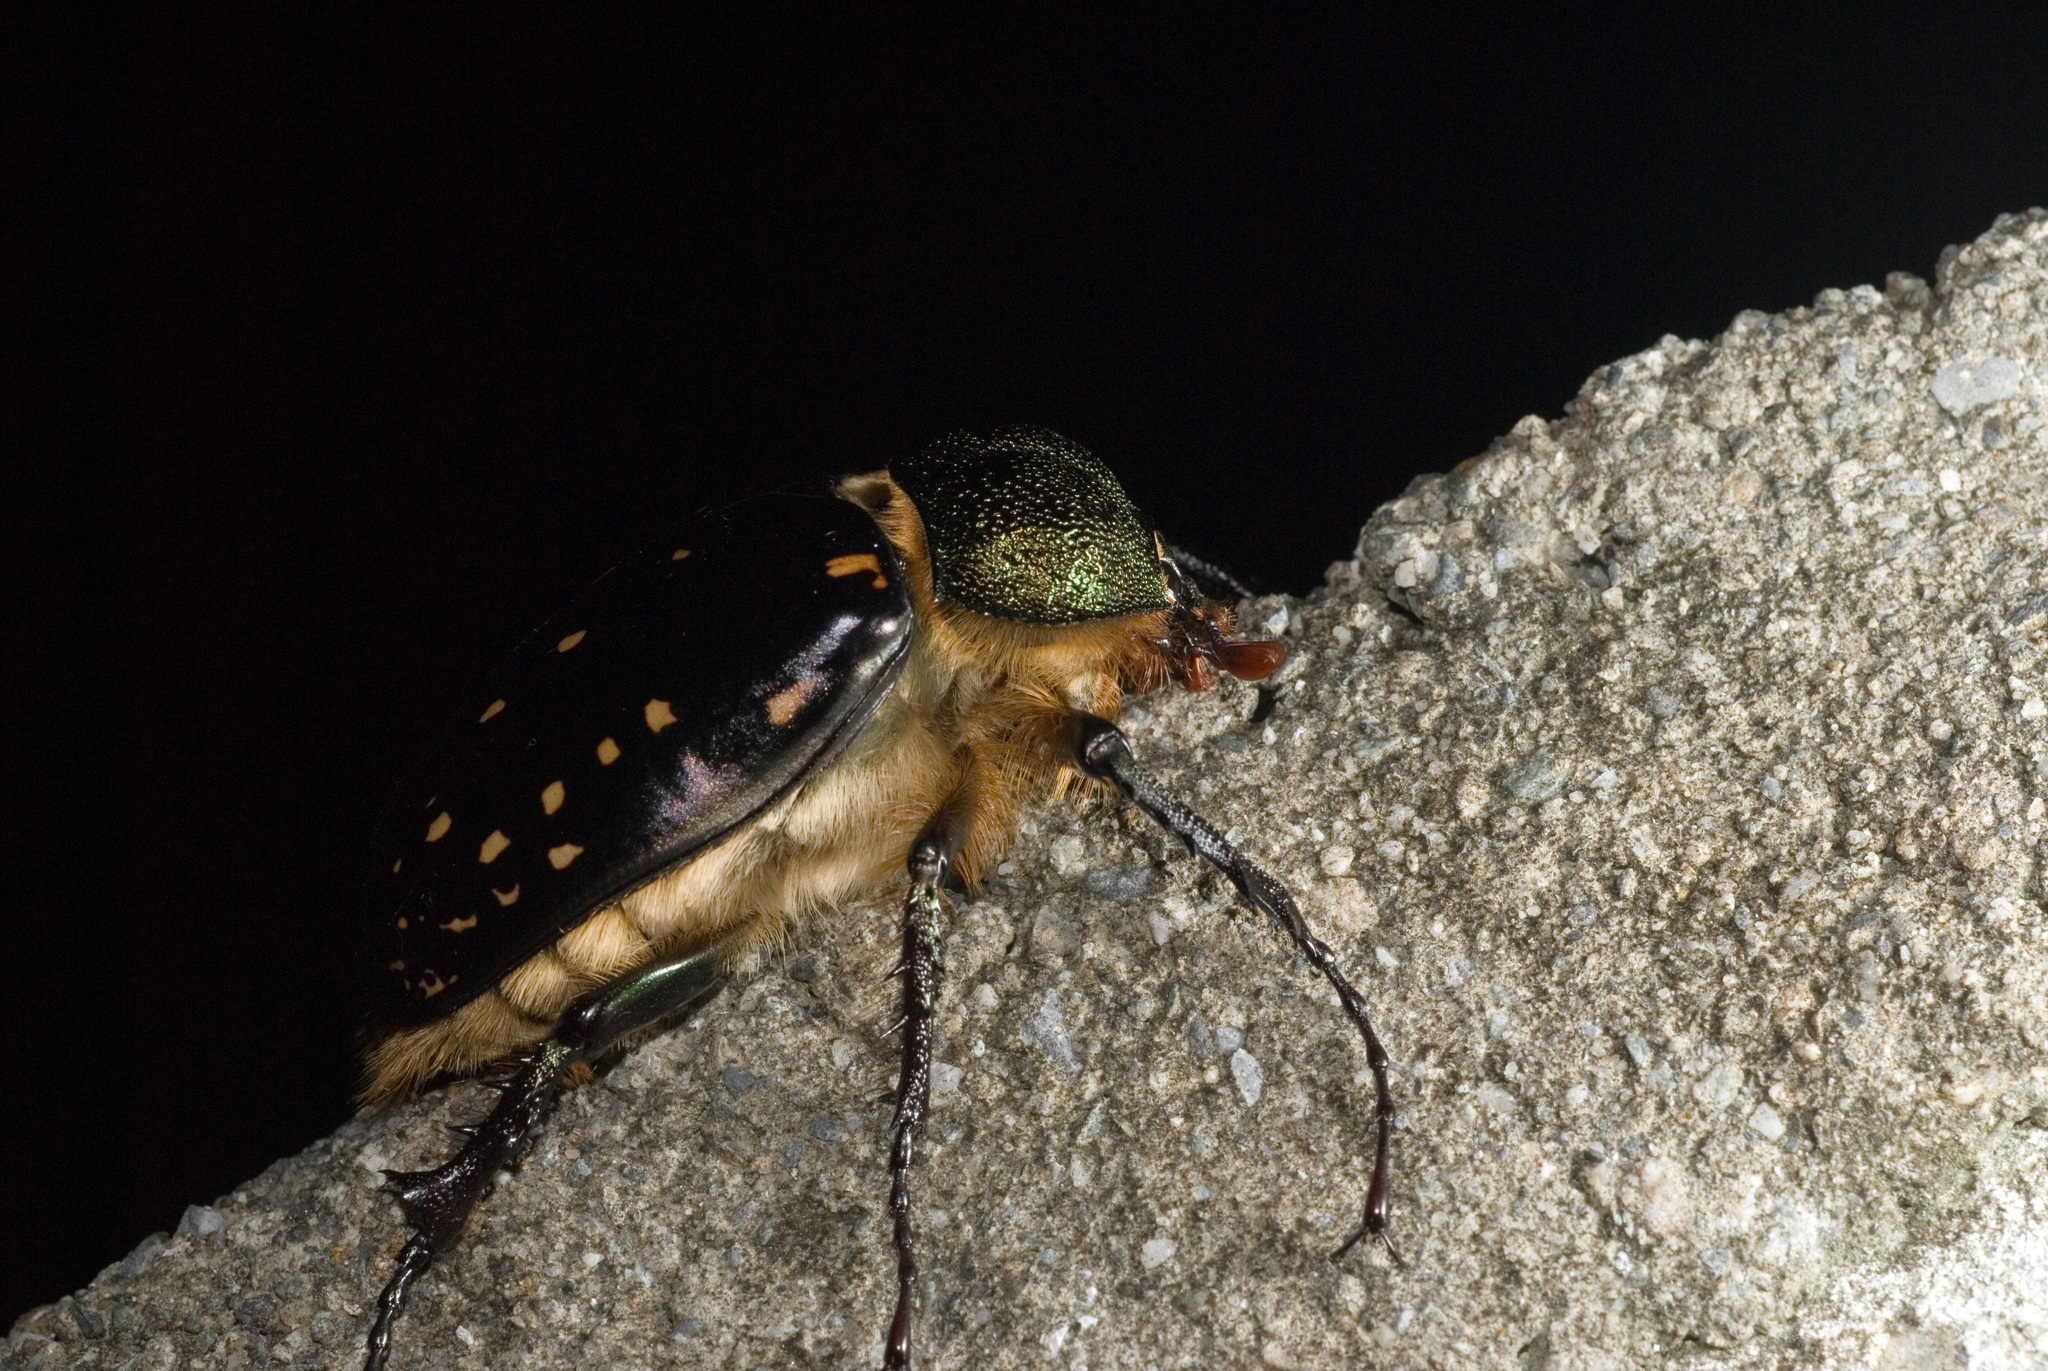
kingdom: Animalia
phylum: Arthropoda
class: Insecta
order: Coleoptera
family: Scarabaeidae
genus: Cheirotonus
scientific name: Cheirotonus formosanus
